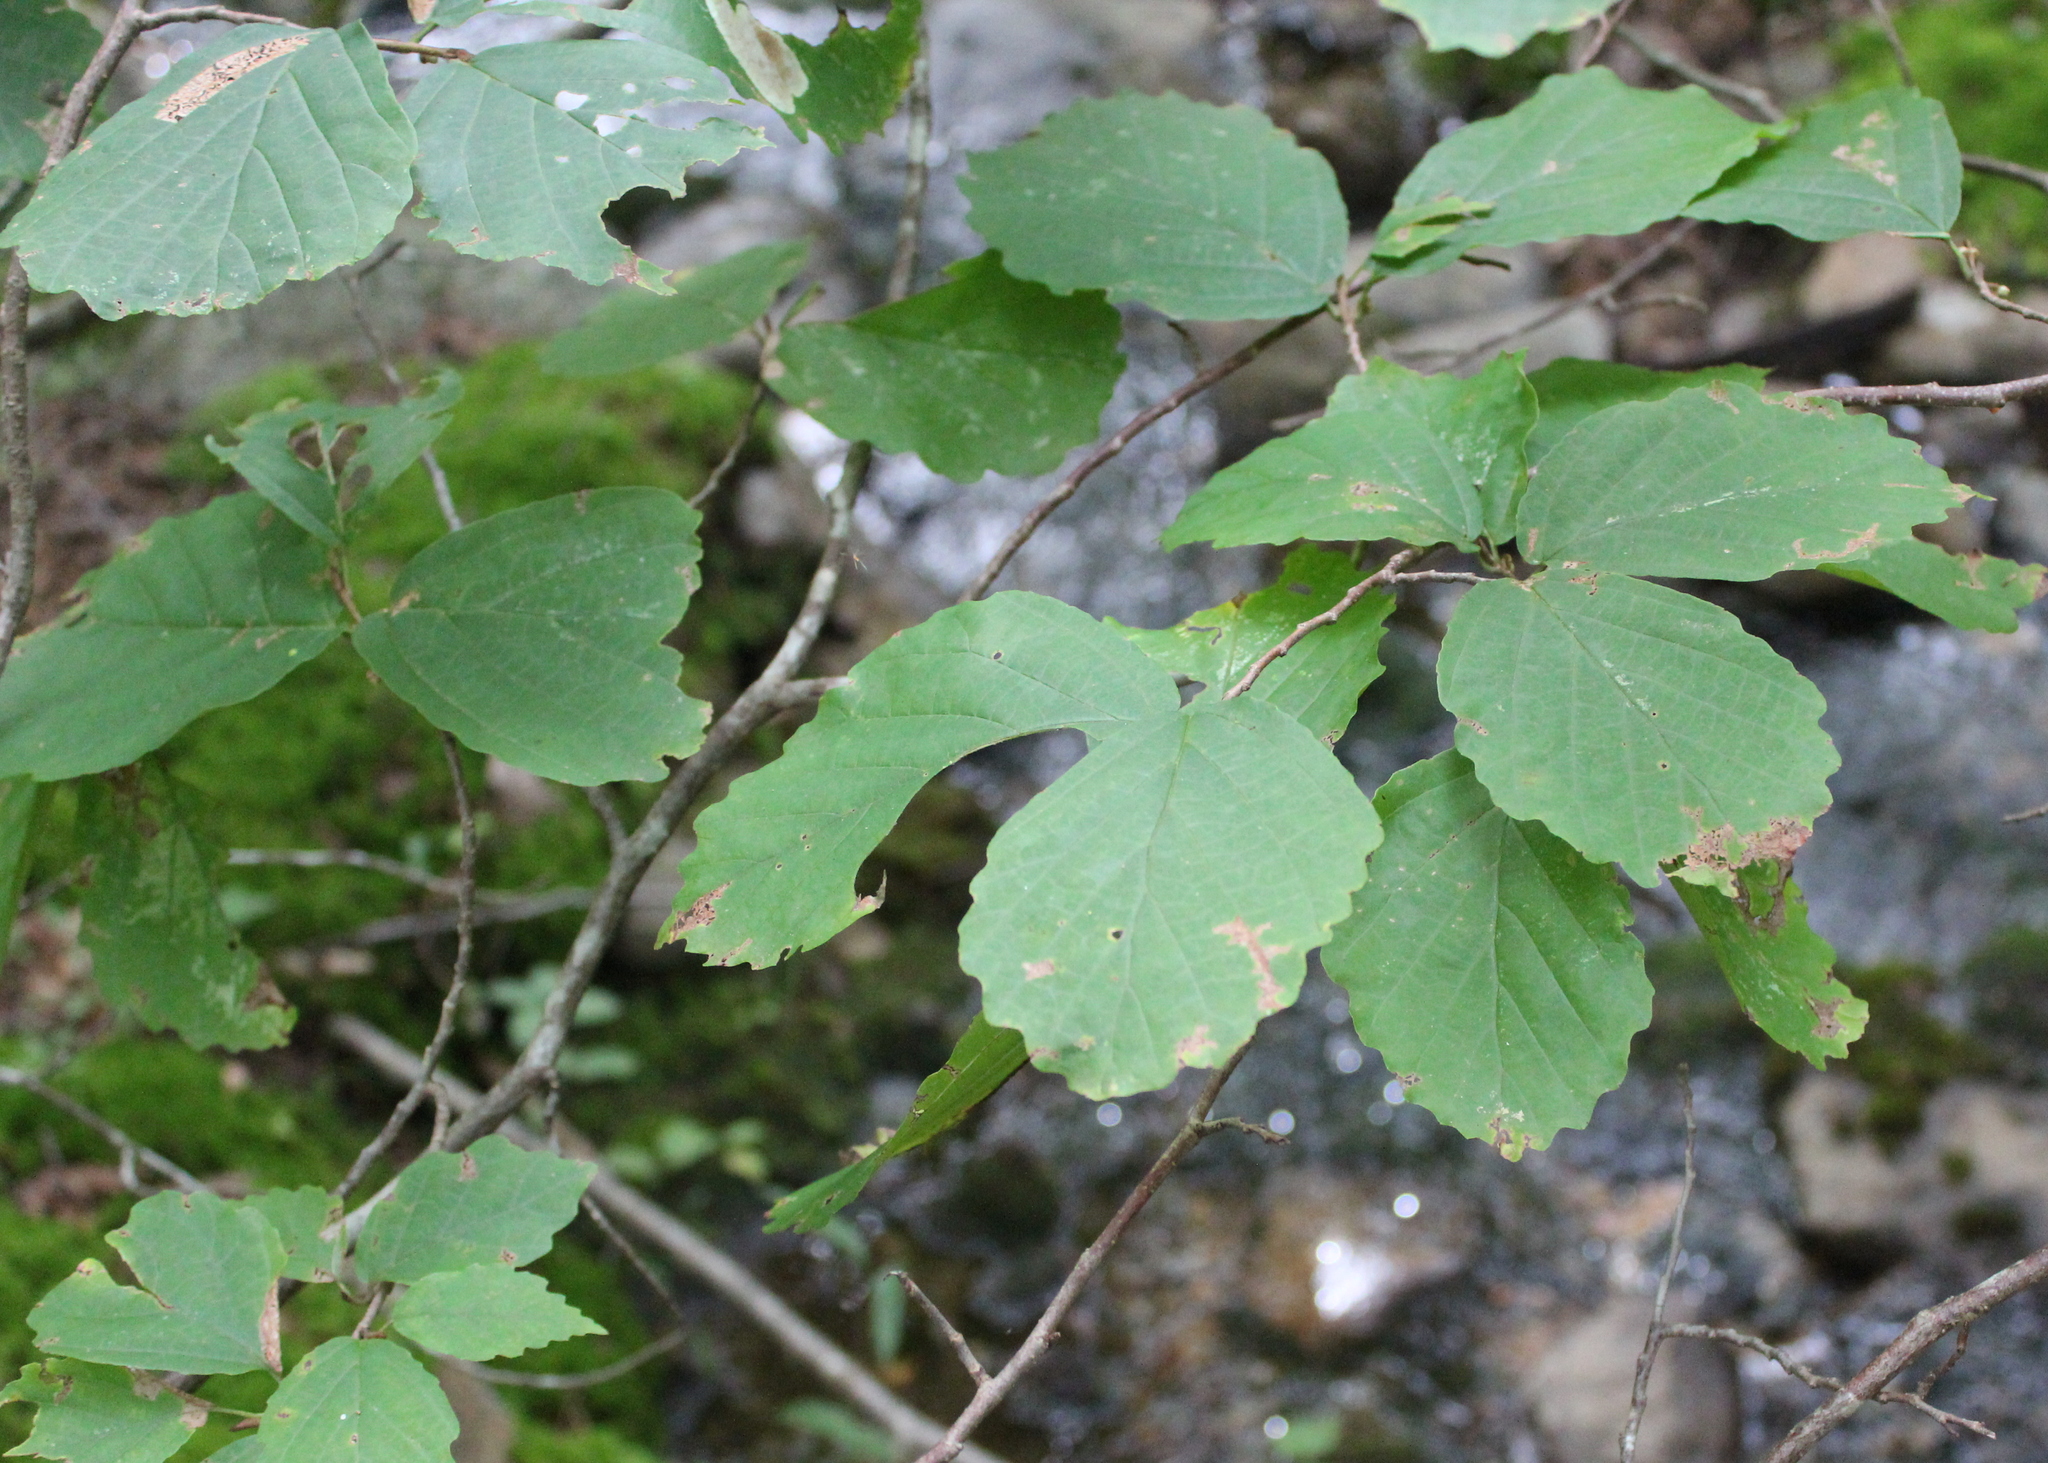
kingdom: Plantae
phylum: Tracheophyta
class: Magnoliopsida
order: Saxifragales
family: Hamamelidaceae
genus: Hamamelis
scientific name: Hamamelis virginiana
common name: Witch-hazel
